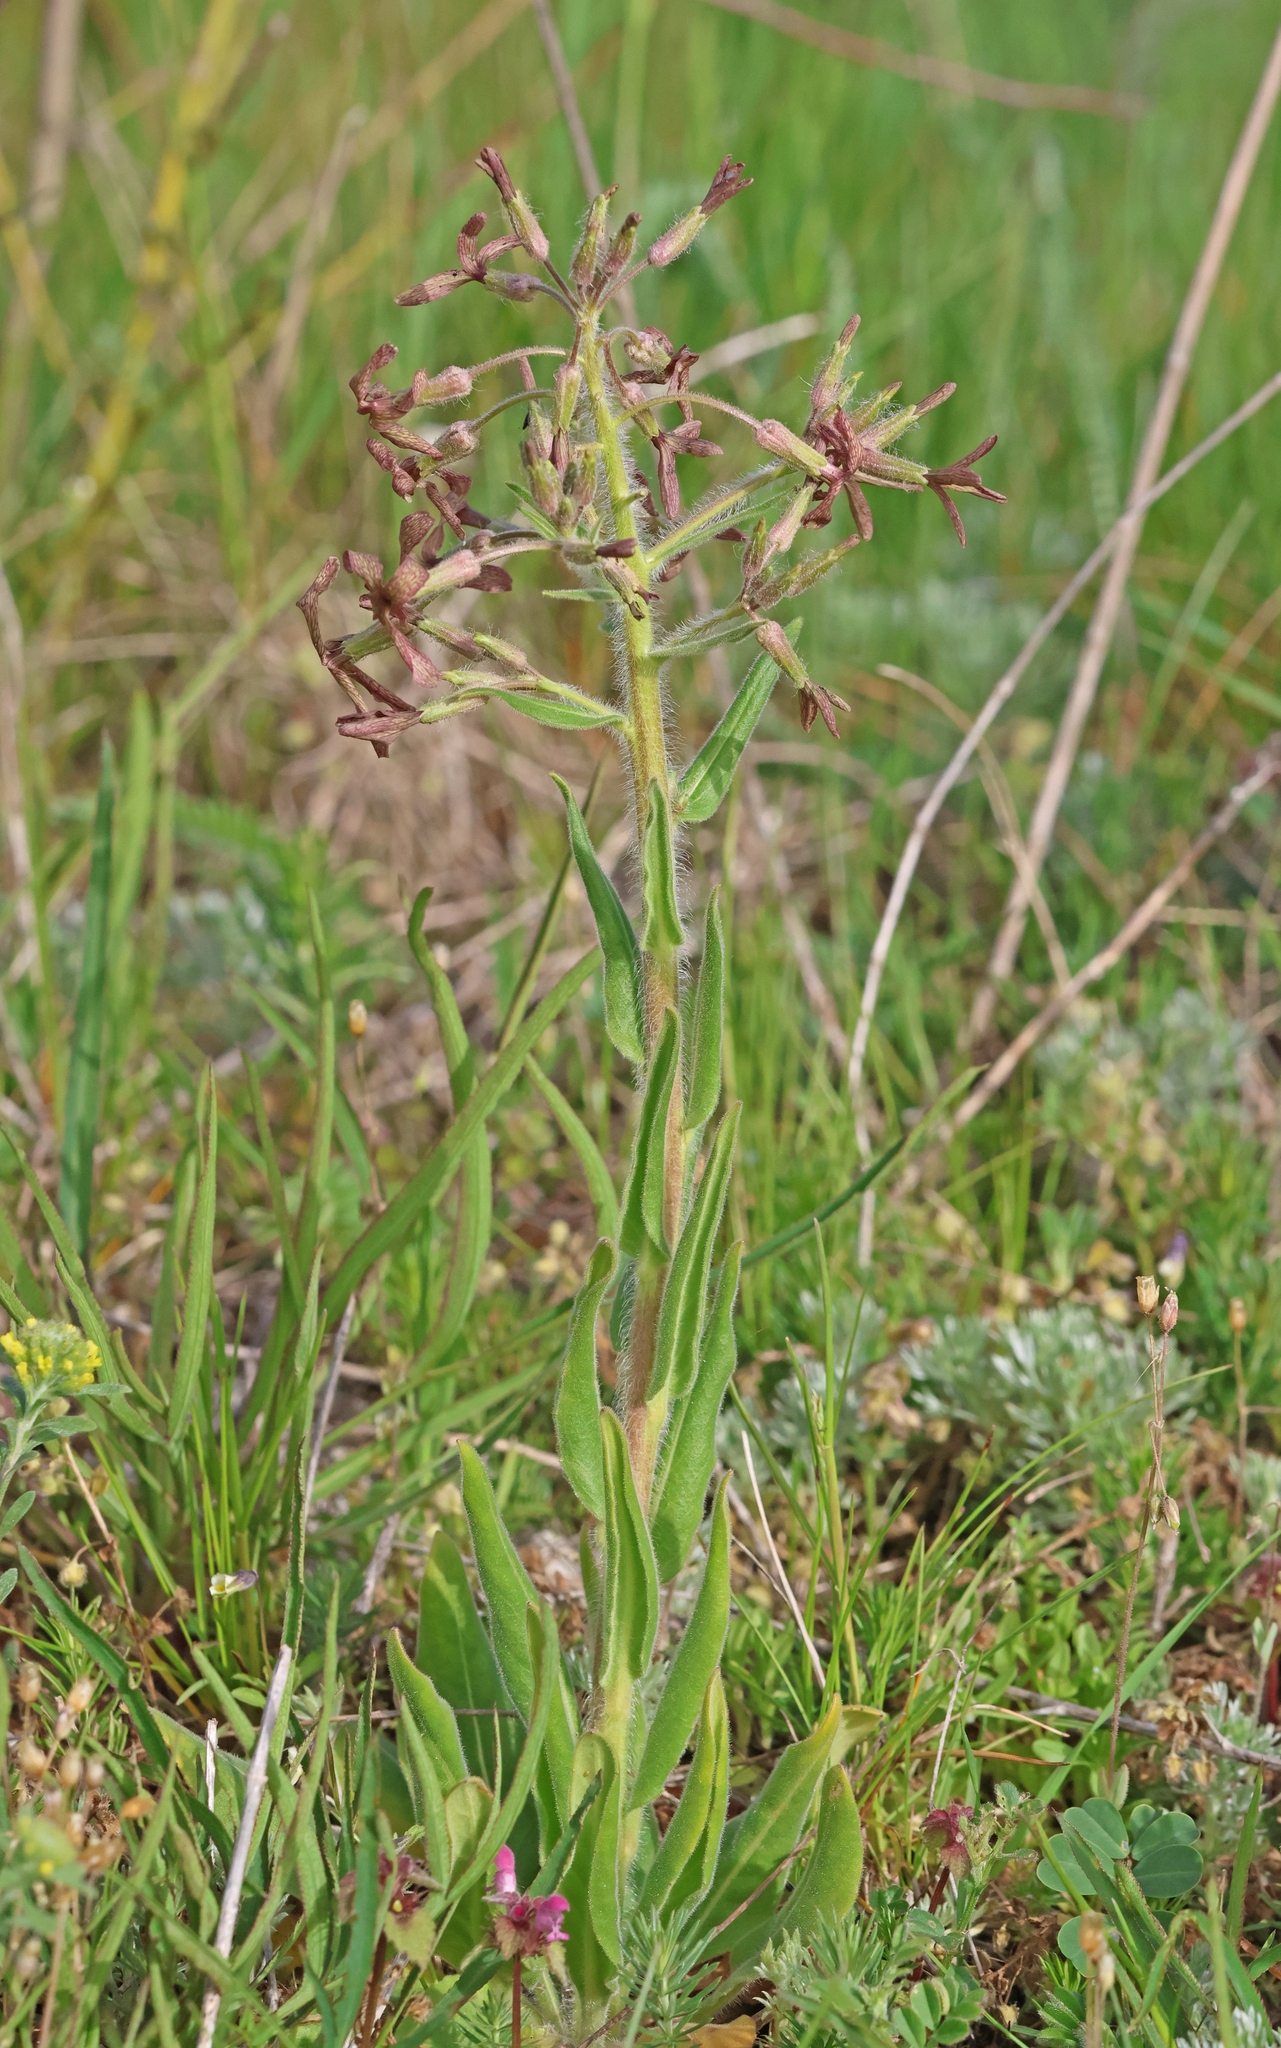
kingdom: Plantae
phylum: Tracheophyta
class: Magnoliopsida
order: Brassicales
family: Brassicaceae
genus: Hesperis
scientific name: Hesperis tristis
